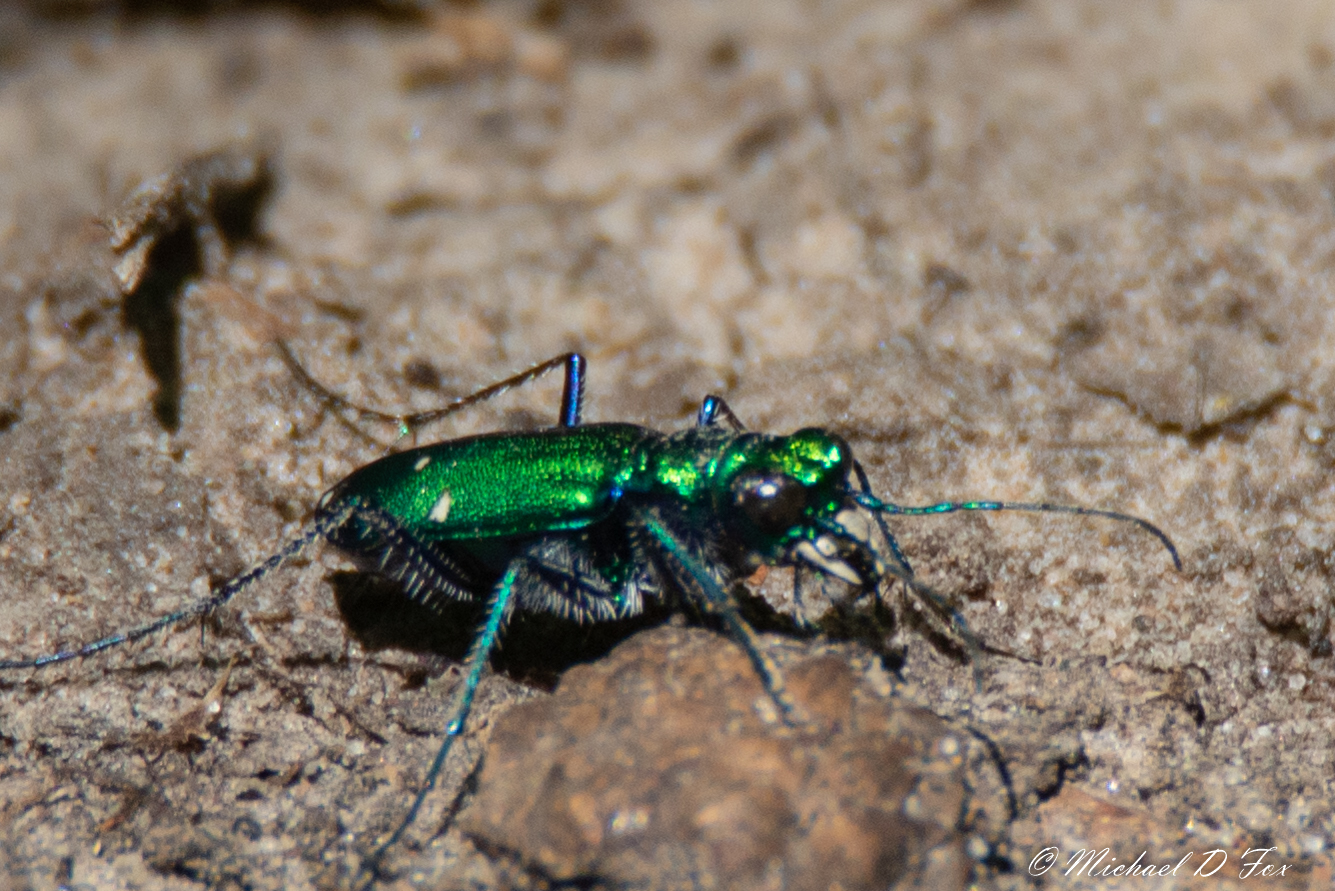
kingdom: Animalia
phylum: Arthropoda
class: Insecta
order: Coleoptera
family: Carabidae
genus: Cicindela
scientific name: Cicindela sexguttata
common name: Six-spotted tiger beetle
